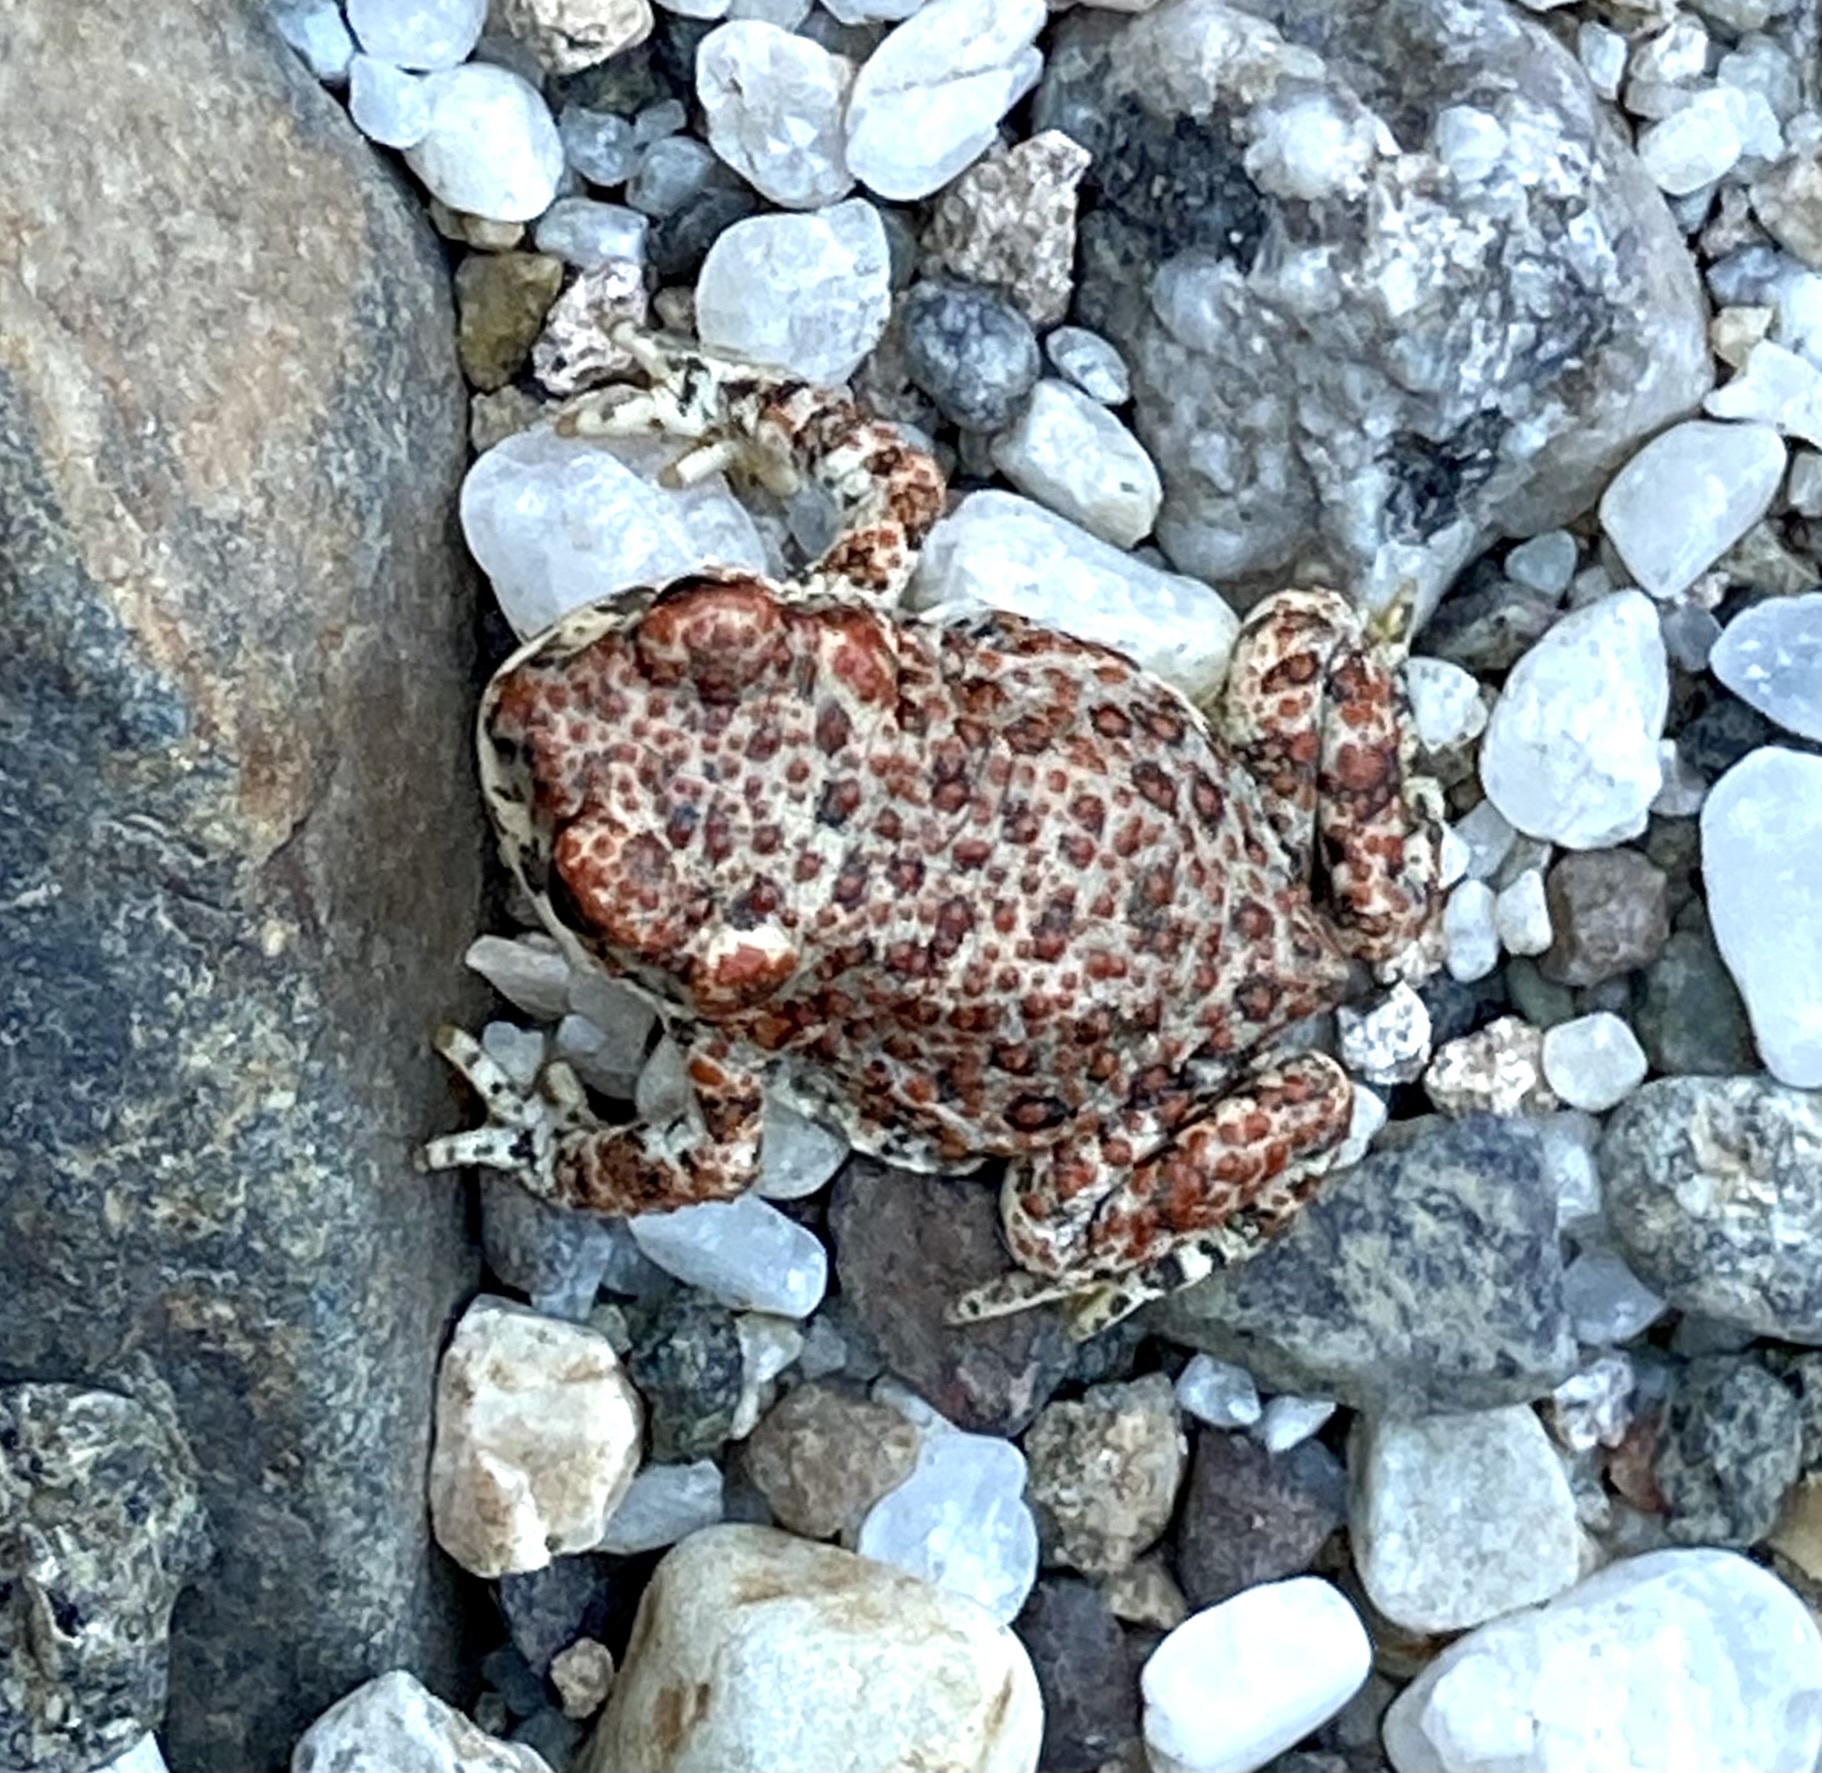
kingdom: Animalia
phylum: Chordata
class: Amphibia
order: Anura
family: Bufonidae
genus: Anaxyrus
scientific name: Anaxyrus punctatus
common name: Red-spotted toad
